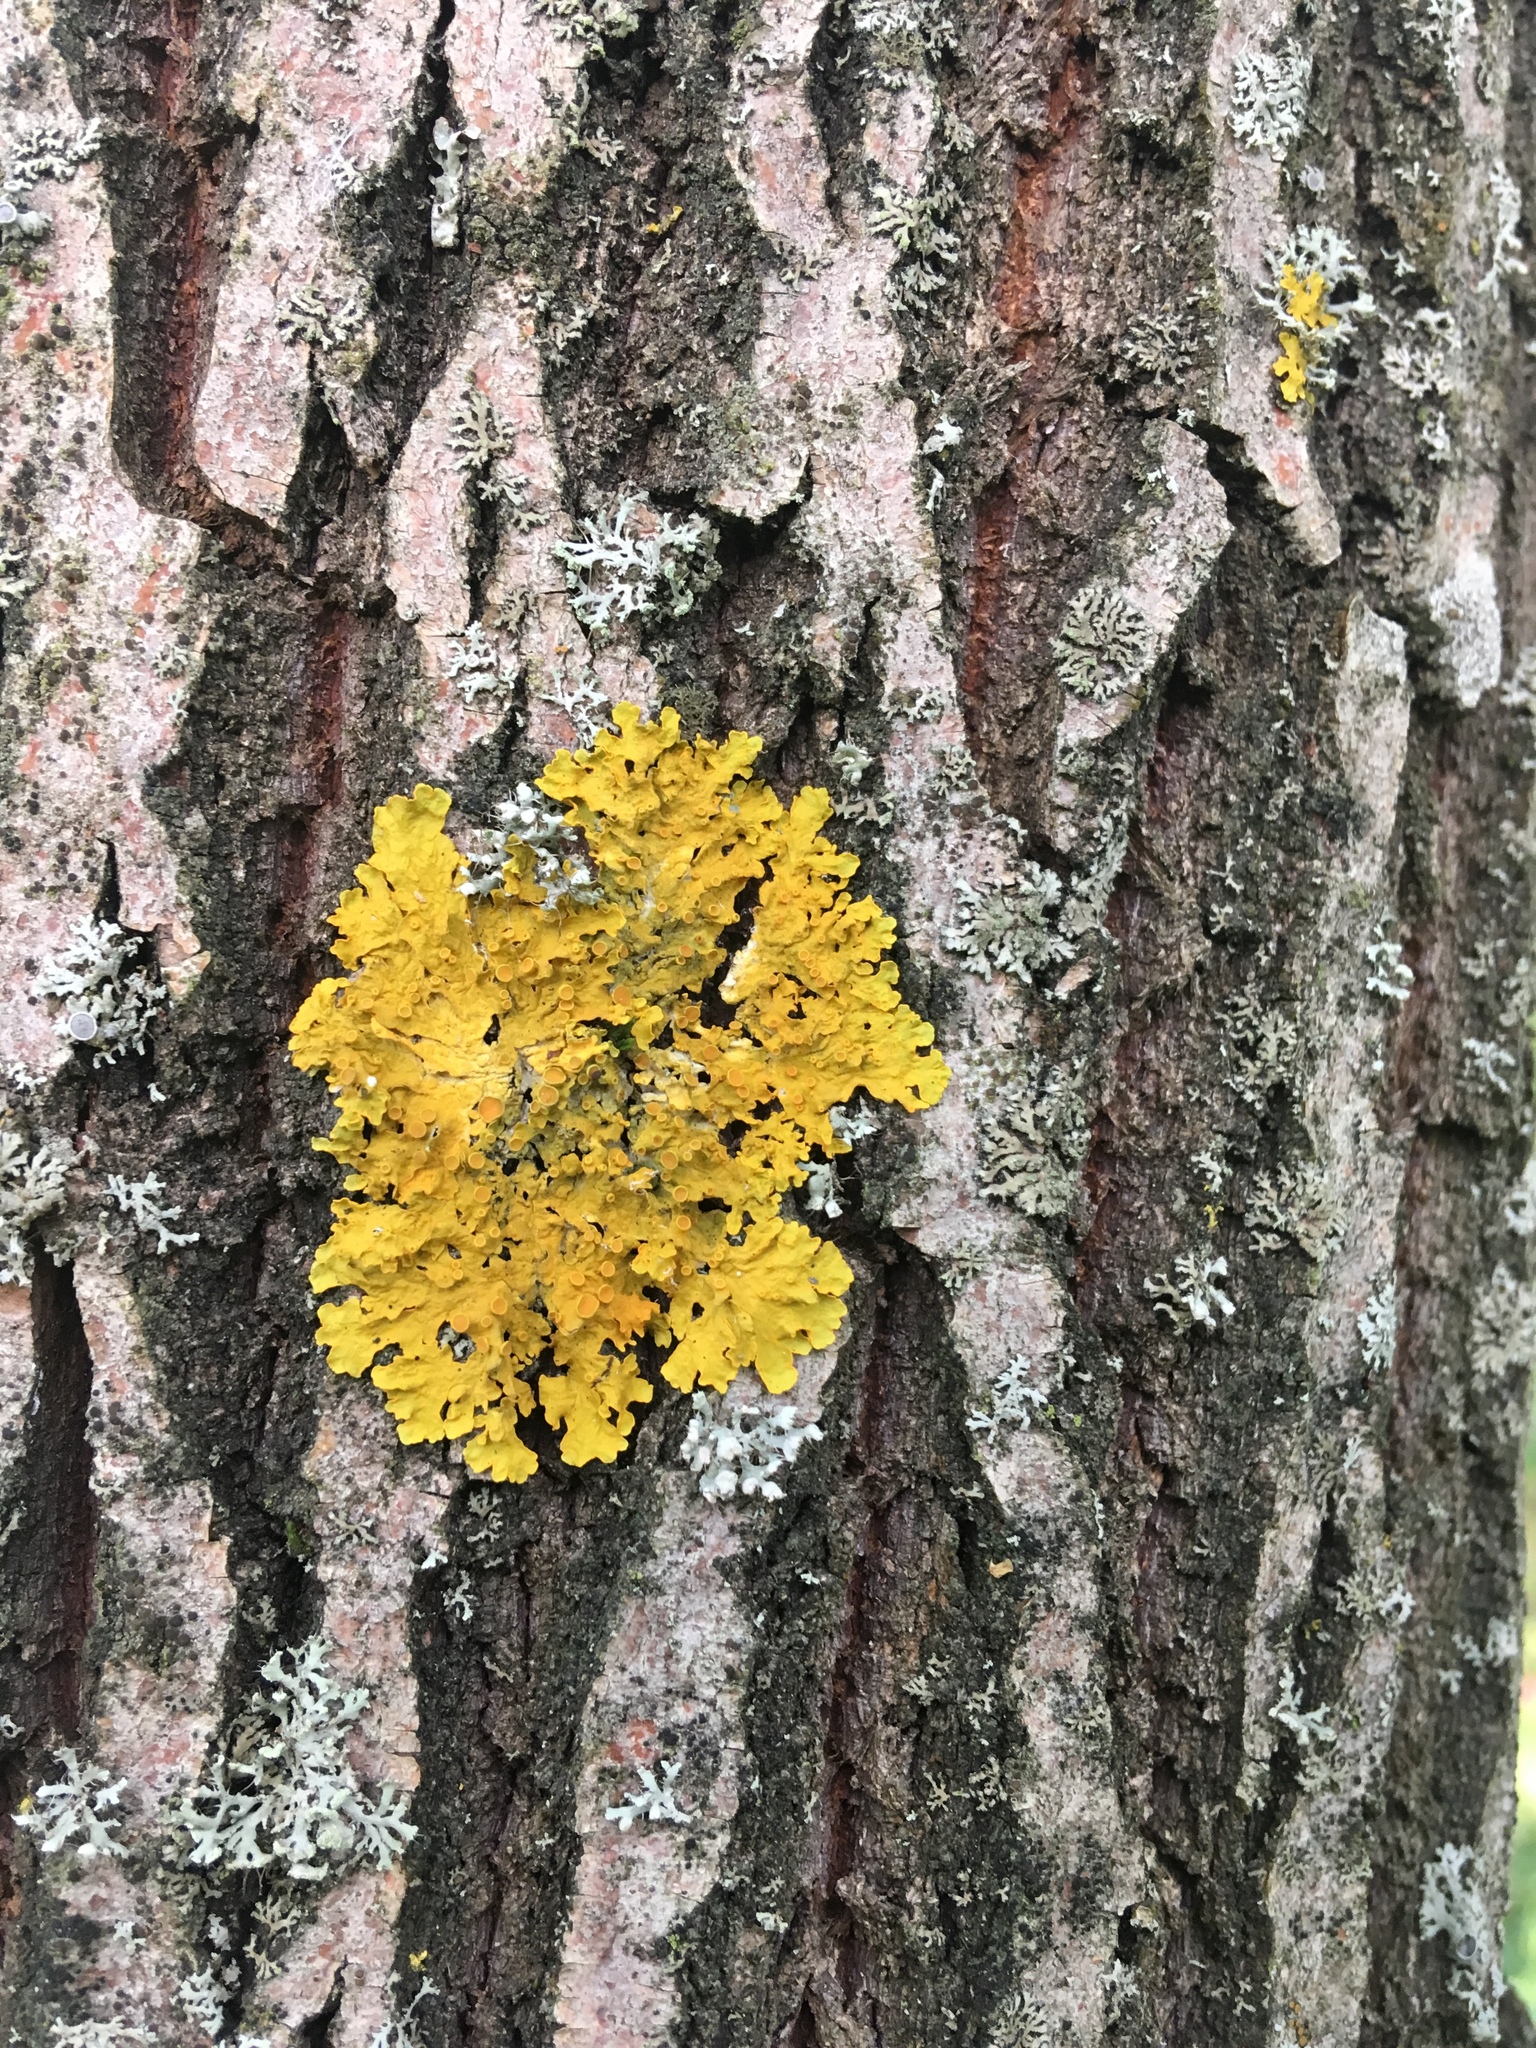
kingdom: Fungi
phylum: Ascomycota
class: Lecanoromycetes
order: Teloschistales
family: Teloschistaceae
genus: Xanthoria
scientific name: Xanthoria parietina
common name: Common orange lichen
